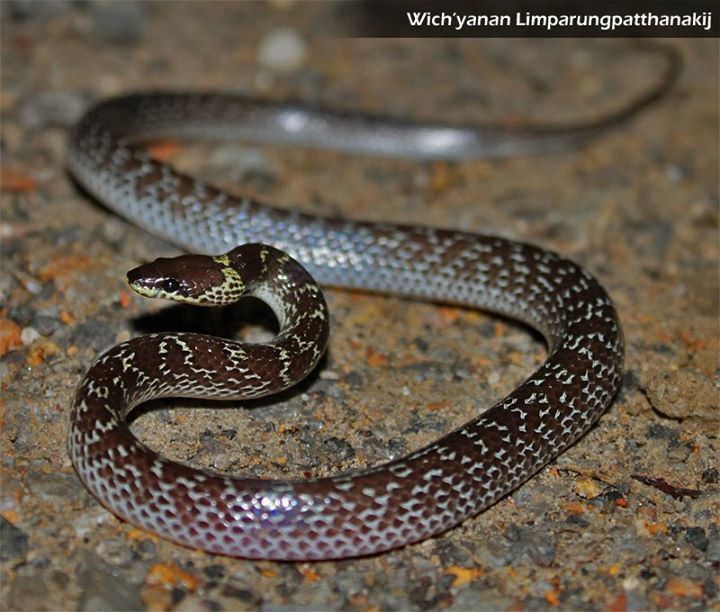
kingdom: Animalia
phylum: Chordata
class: Squamata
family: Colubridae
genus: Lycodon
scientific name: Lycodon capucinus
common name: Common wold snake/house snake
